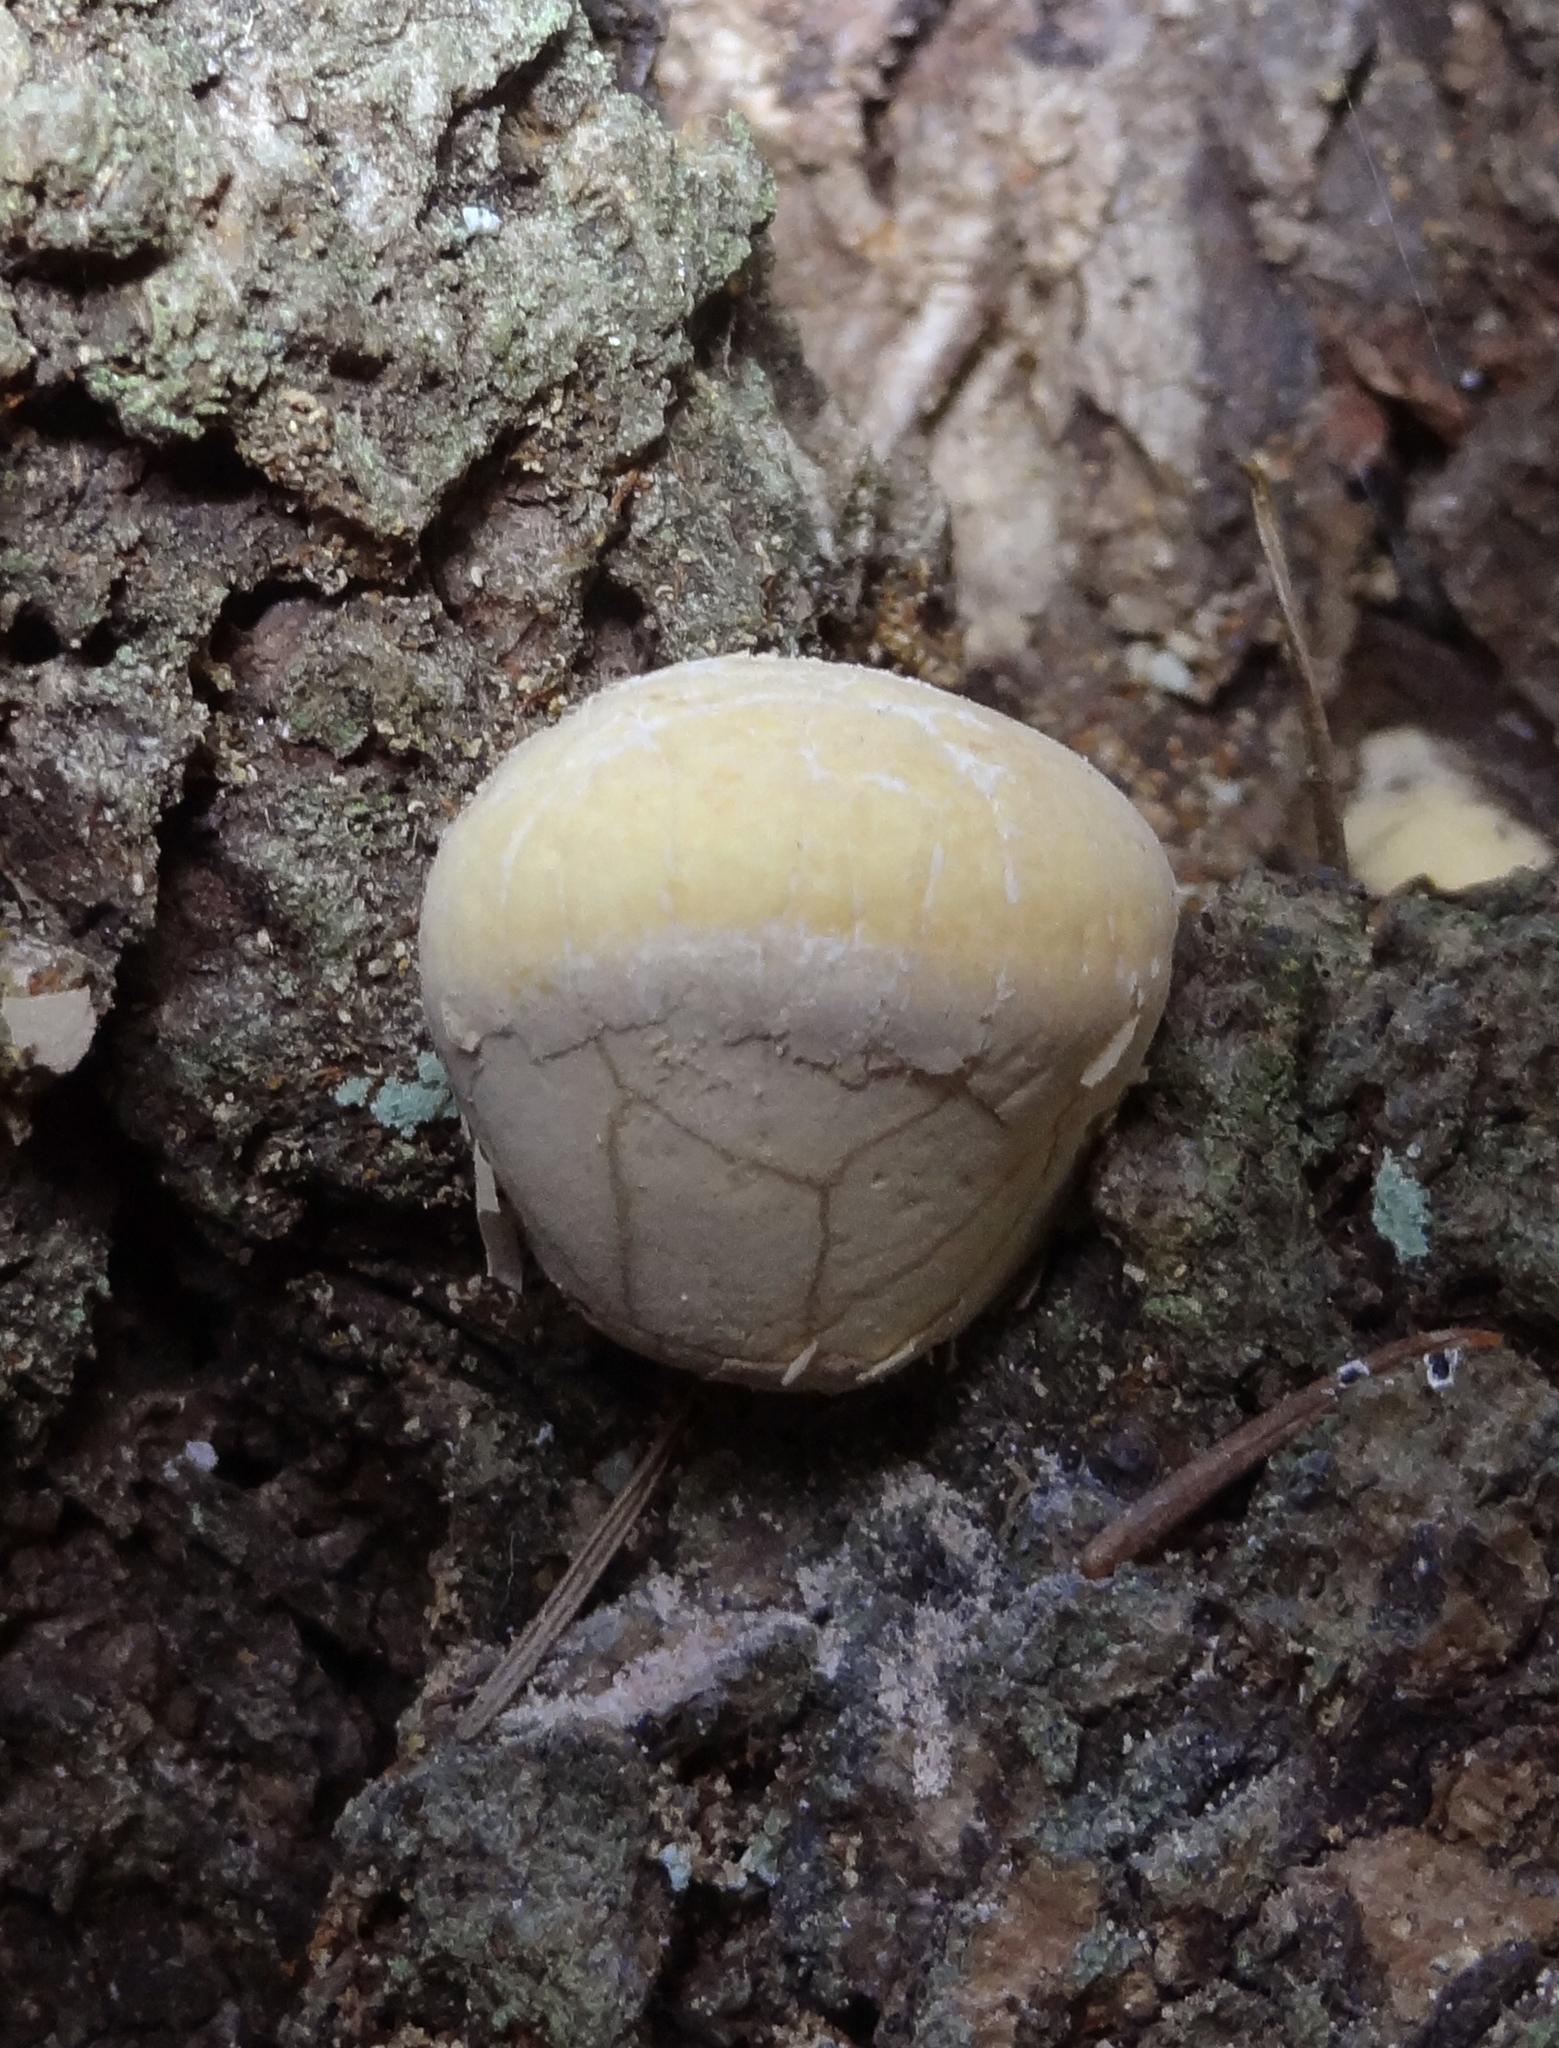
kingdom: Fungi
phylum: Basidiomycota
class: Agaricomycetes
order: Polyporales
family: Polyporaceae
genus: Cryptoporus
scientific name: Cryptoporus volvatus
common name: Veiled polypore
